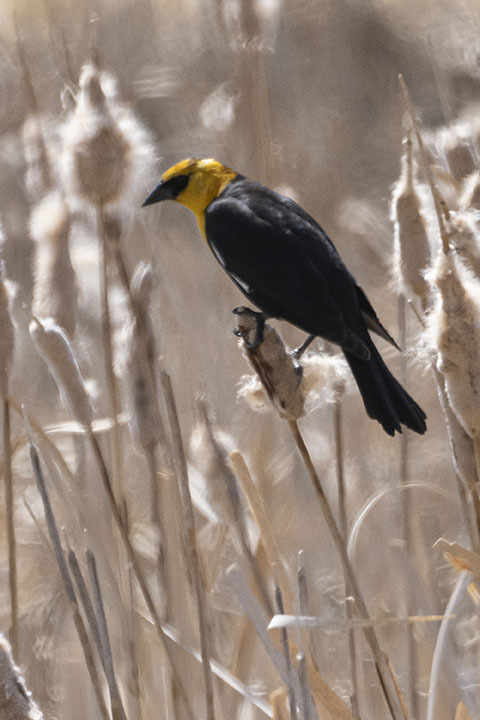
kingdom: Animalia
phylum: Chordata
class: Aves
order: Passeriformes
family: Icteridae
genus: Xanthocephalus
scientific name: Xanthocephalus xanthocephalus
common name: Yellow-headed blackbird
